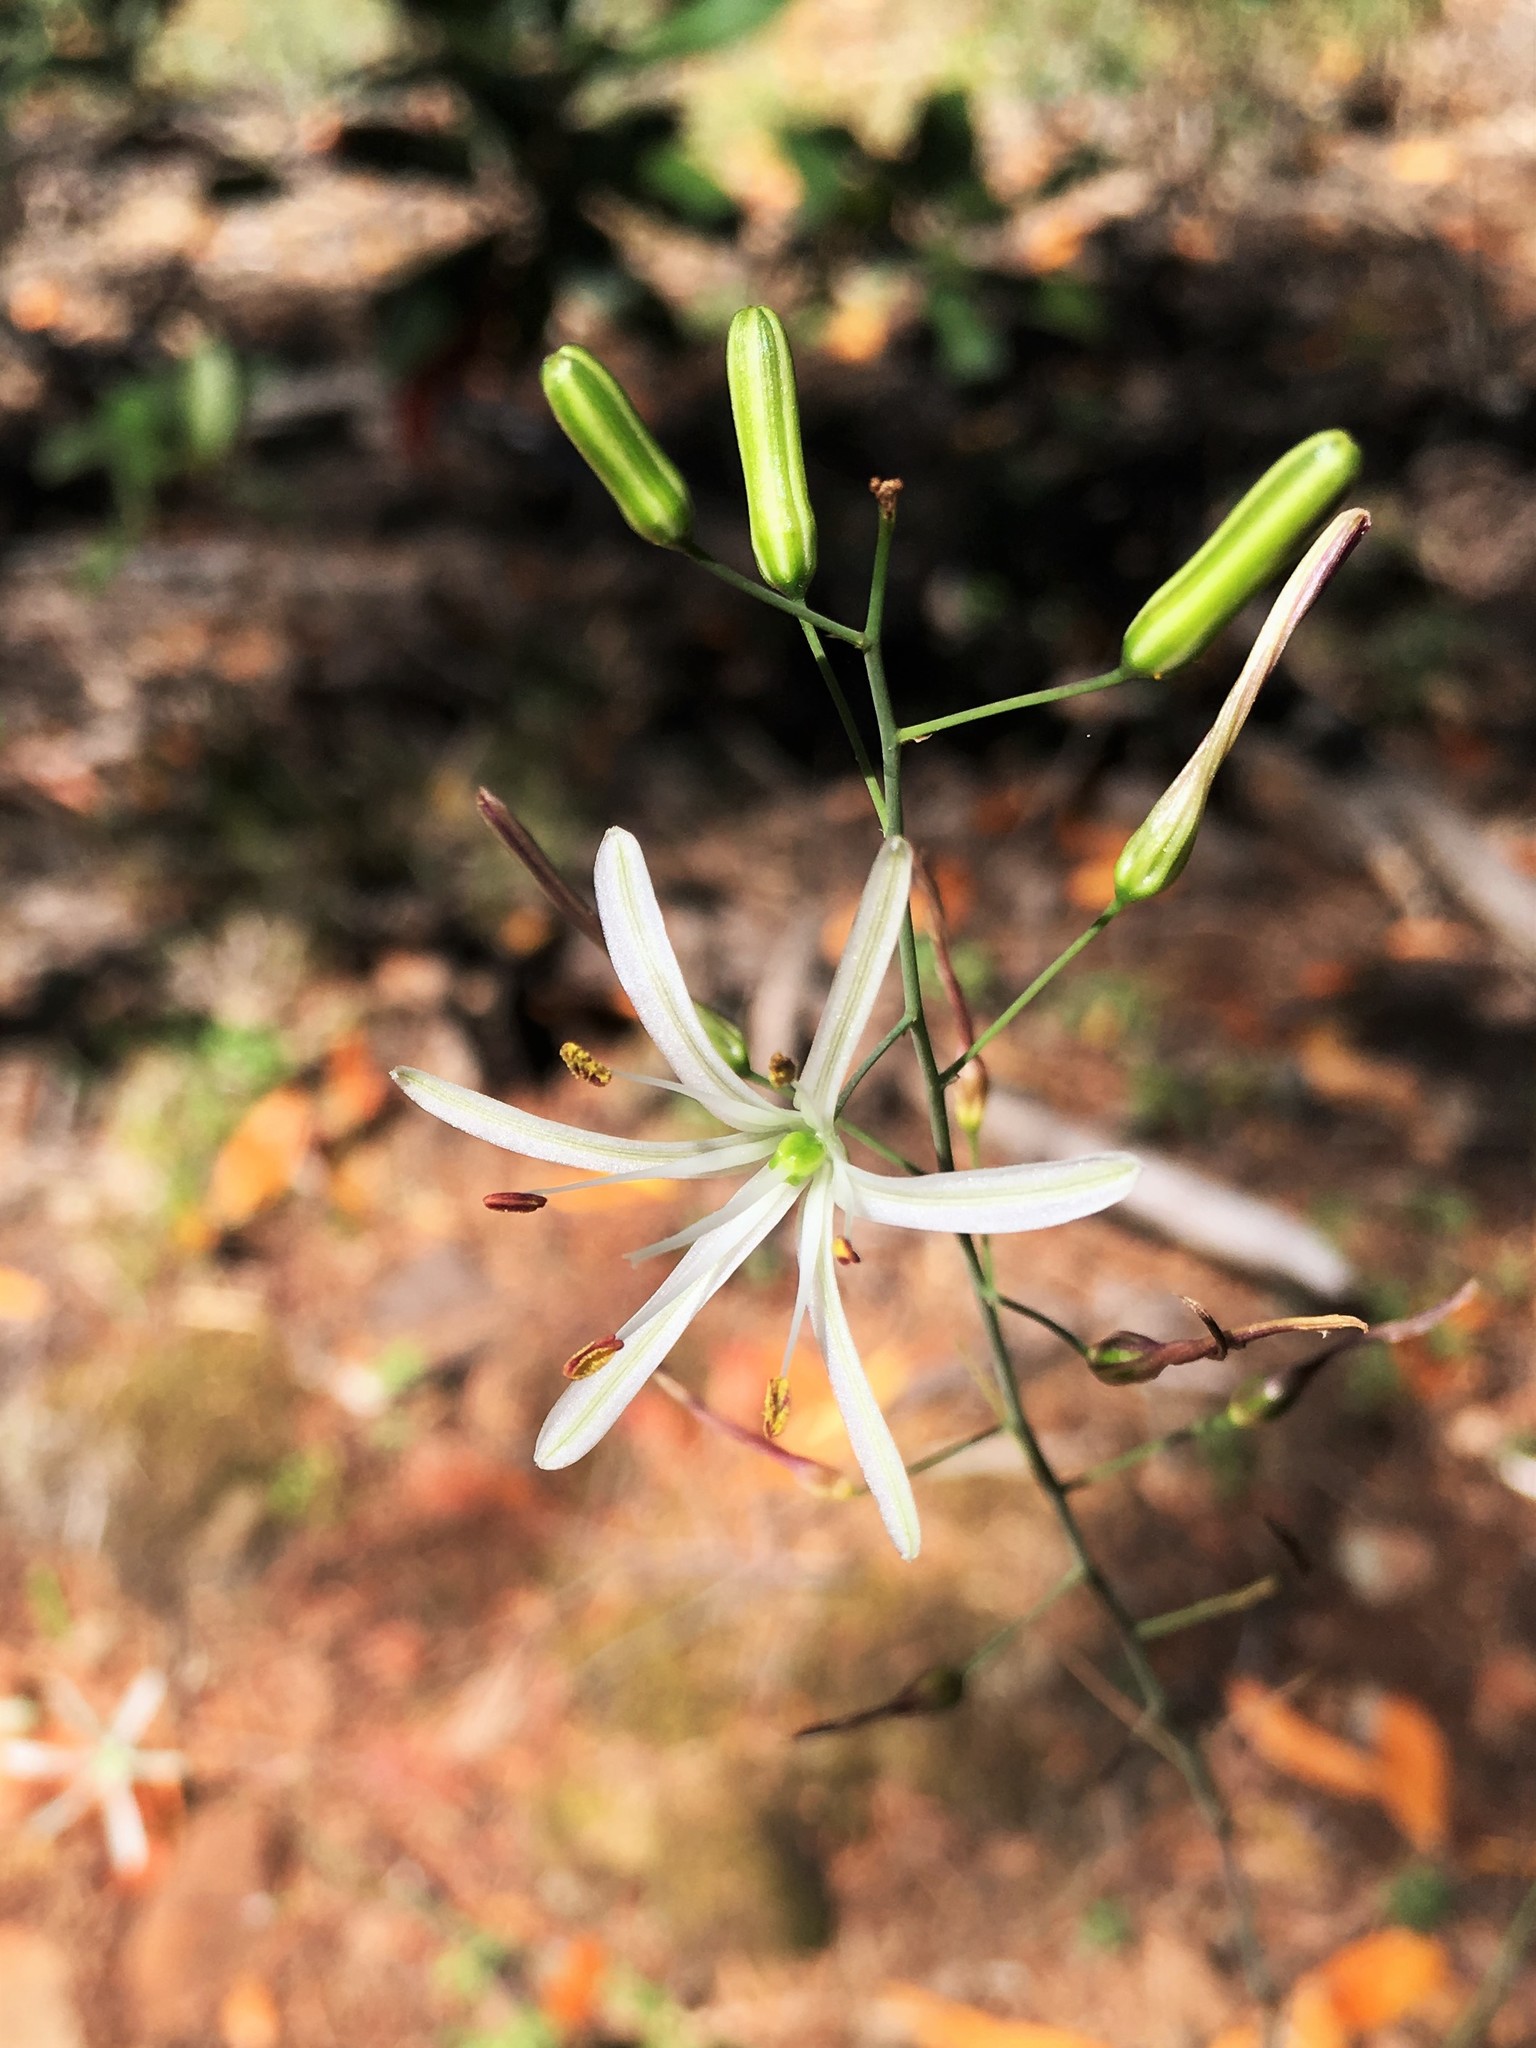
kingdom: Plantae
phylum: Tracheophyta
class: Liliopsida
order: Asparagales
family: Asparagaceae
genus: Chlorogalum
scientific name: Chlorogalum pomeridianum
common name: Amole
